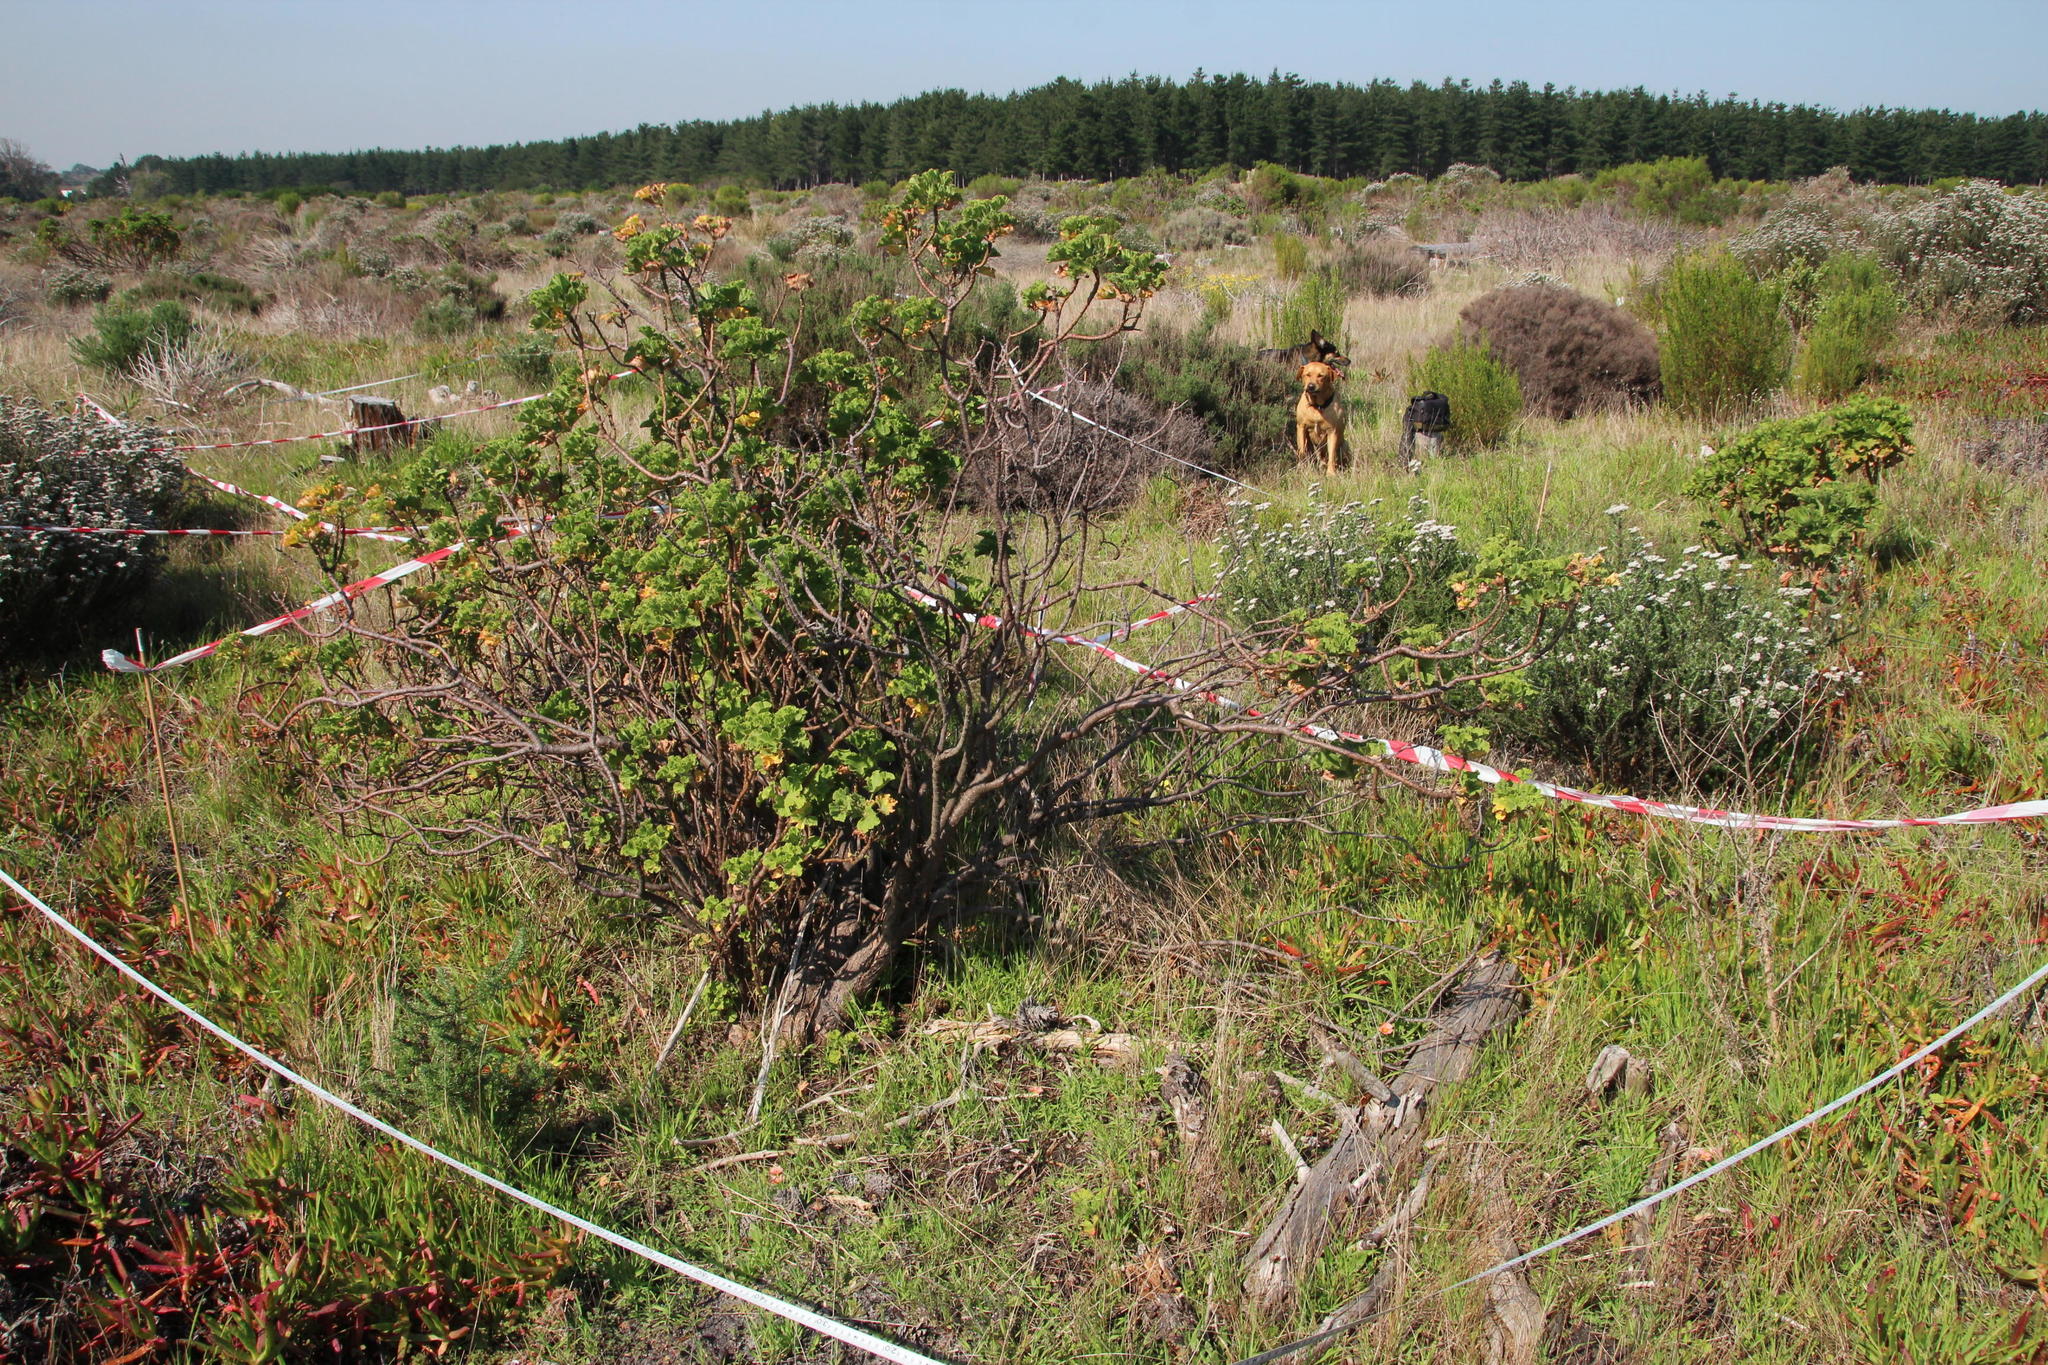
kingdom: Plantae
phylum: Tracheophyta
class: Magnoliopsida
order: Geraniales
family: Geraniaceae
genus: Pelargonium
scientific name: Pelargonium cucullatum
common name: Tree pelargonium
